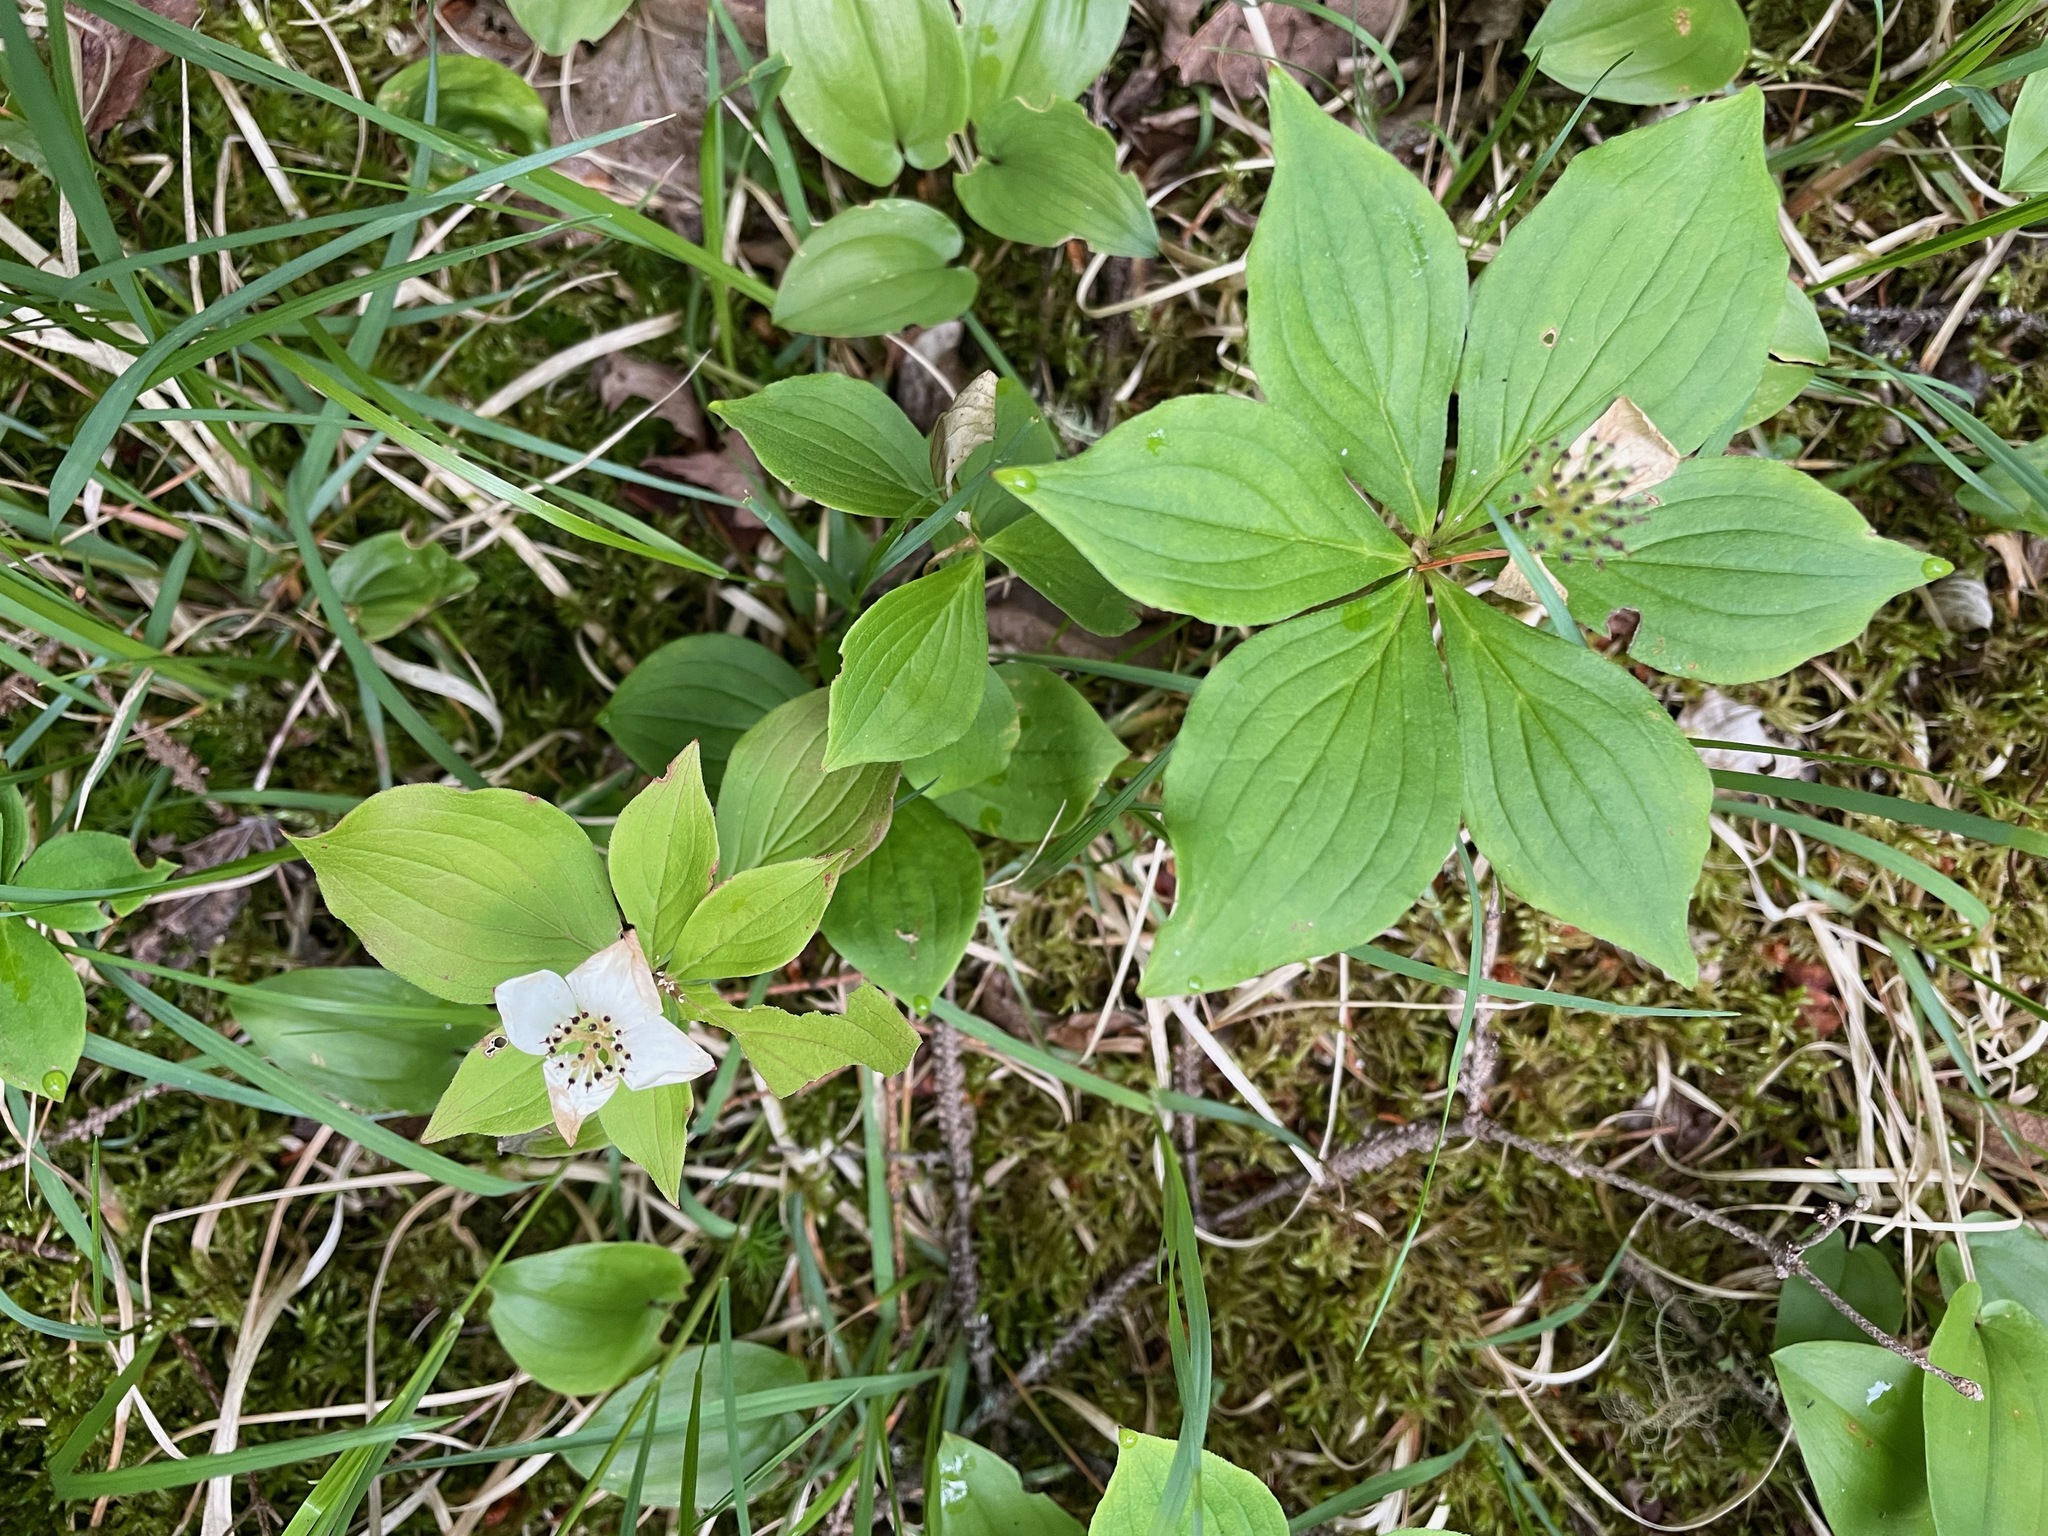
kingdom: Plantae
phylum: Tracheophyta
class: Magnoliopsida
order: Cornales
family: Cornaceae
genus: Cornus
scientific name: Cornus canadensis
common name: Creeping dogwood
